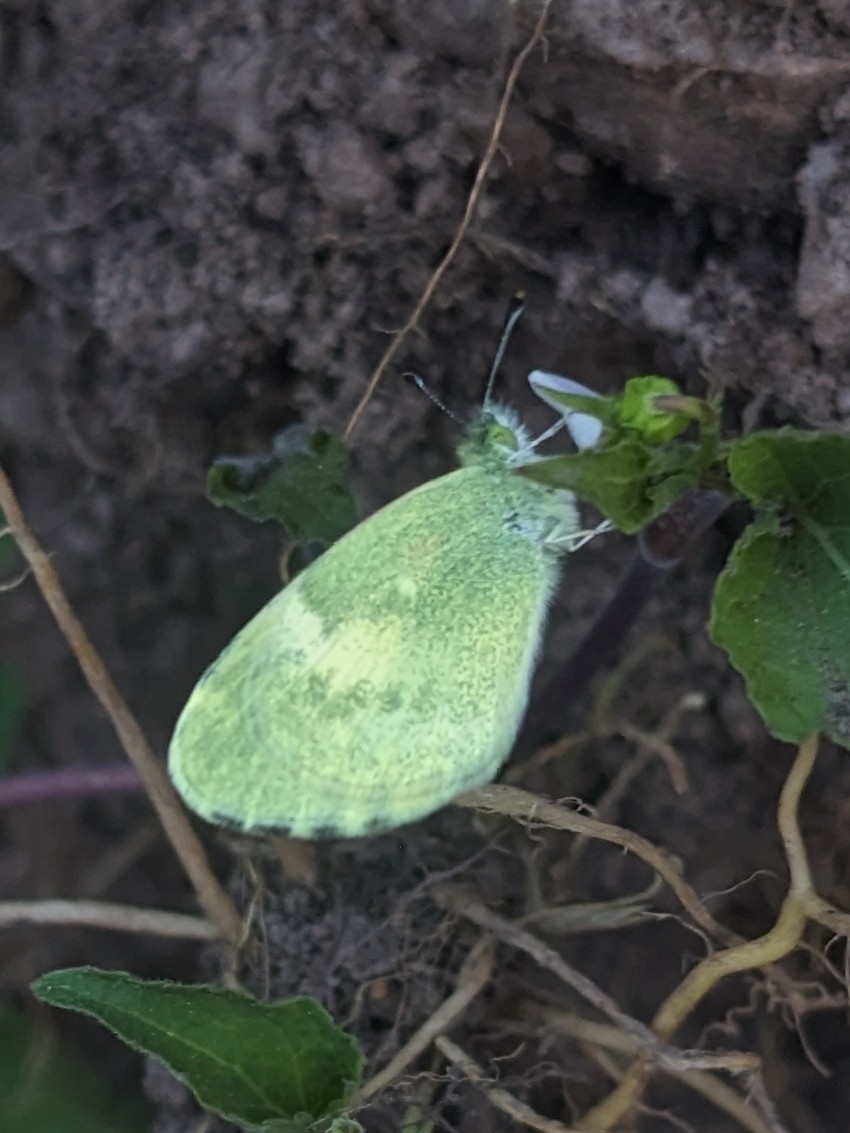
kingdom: Animalia
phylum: Arthropoda
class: Insecta
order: Lepidoptera
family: Pieridae
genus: Nathalis
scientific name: Nathalis iole
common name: Dainty sulphur
